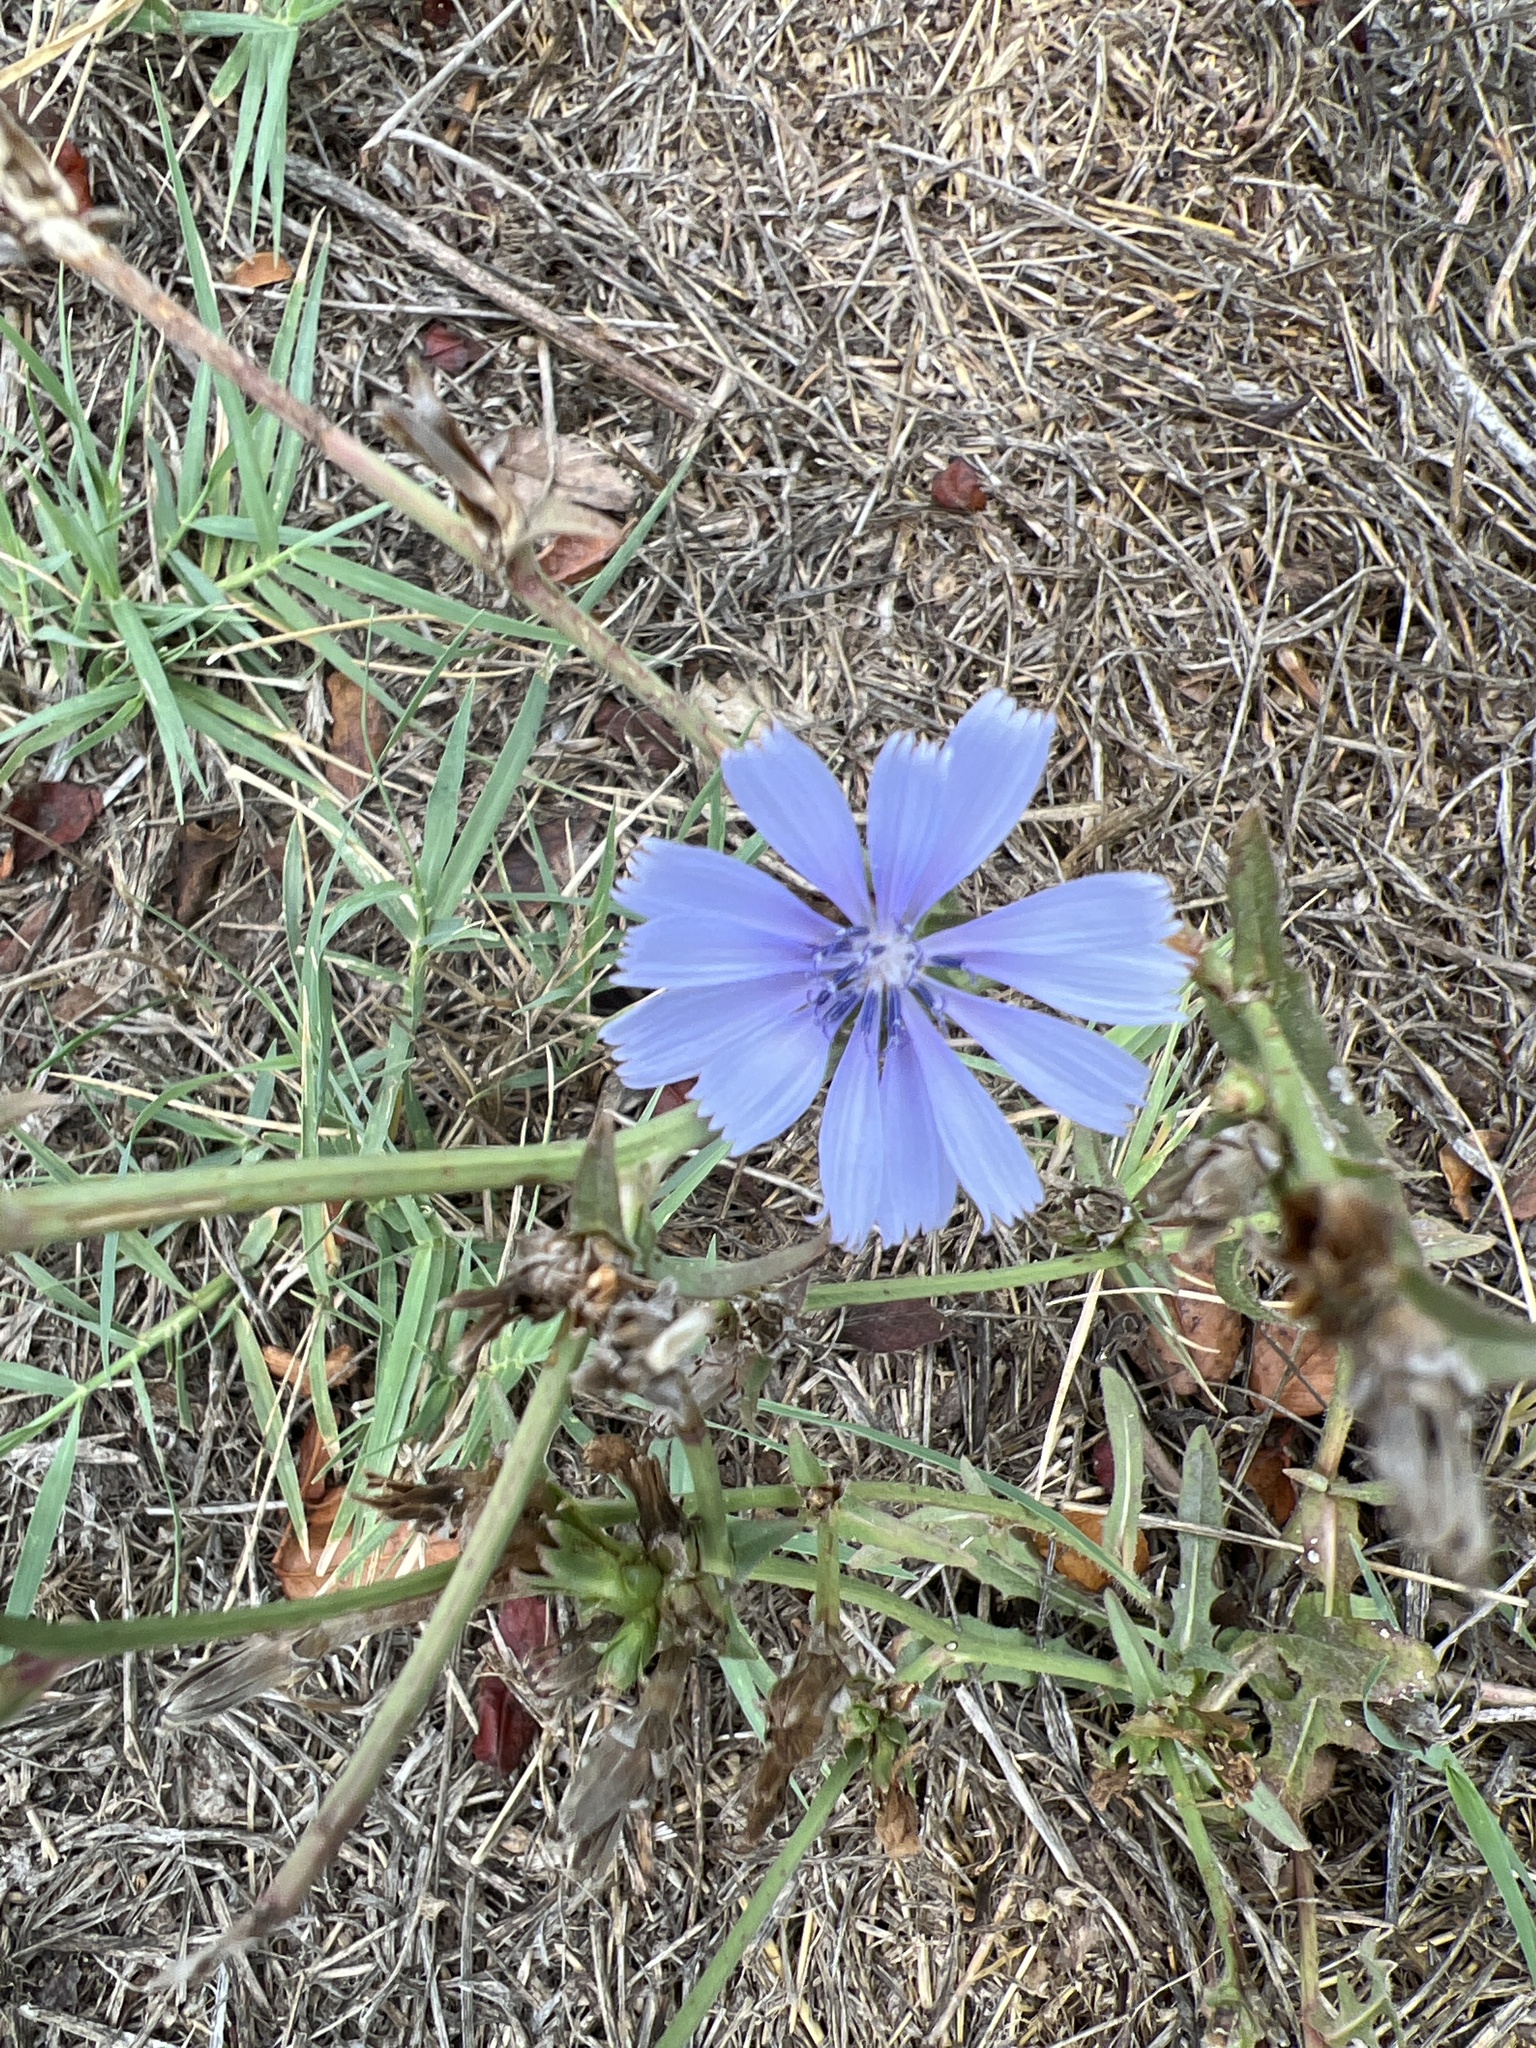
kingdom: Plantae
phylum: Tracheophyta
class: Magnoliopsida
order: Asterales
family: Asteraceae
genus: Cichorium
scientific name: Cichorium intybus
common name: Chicory
